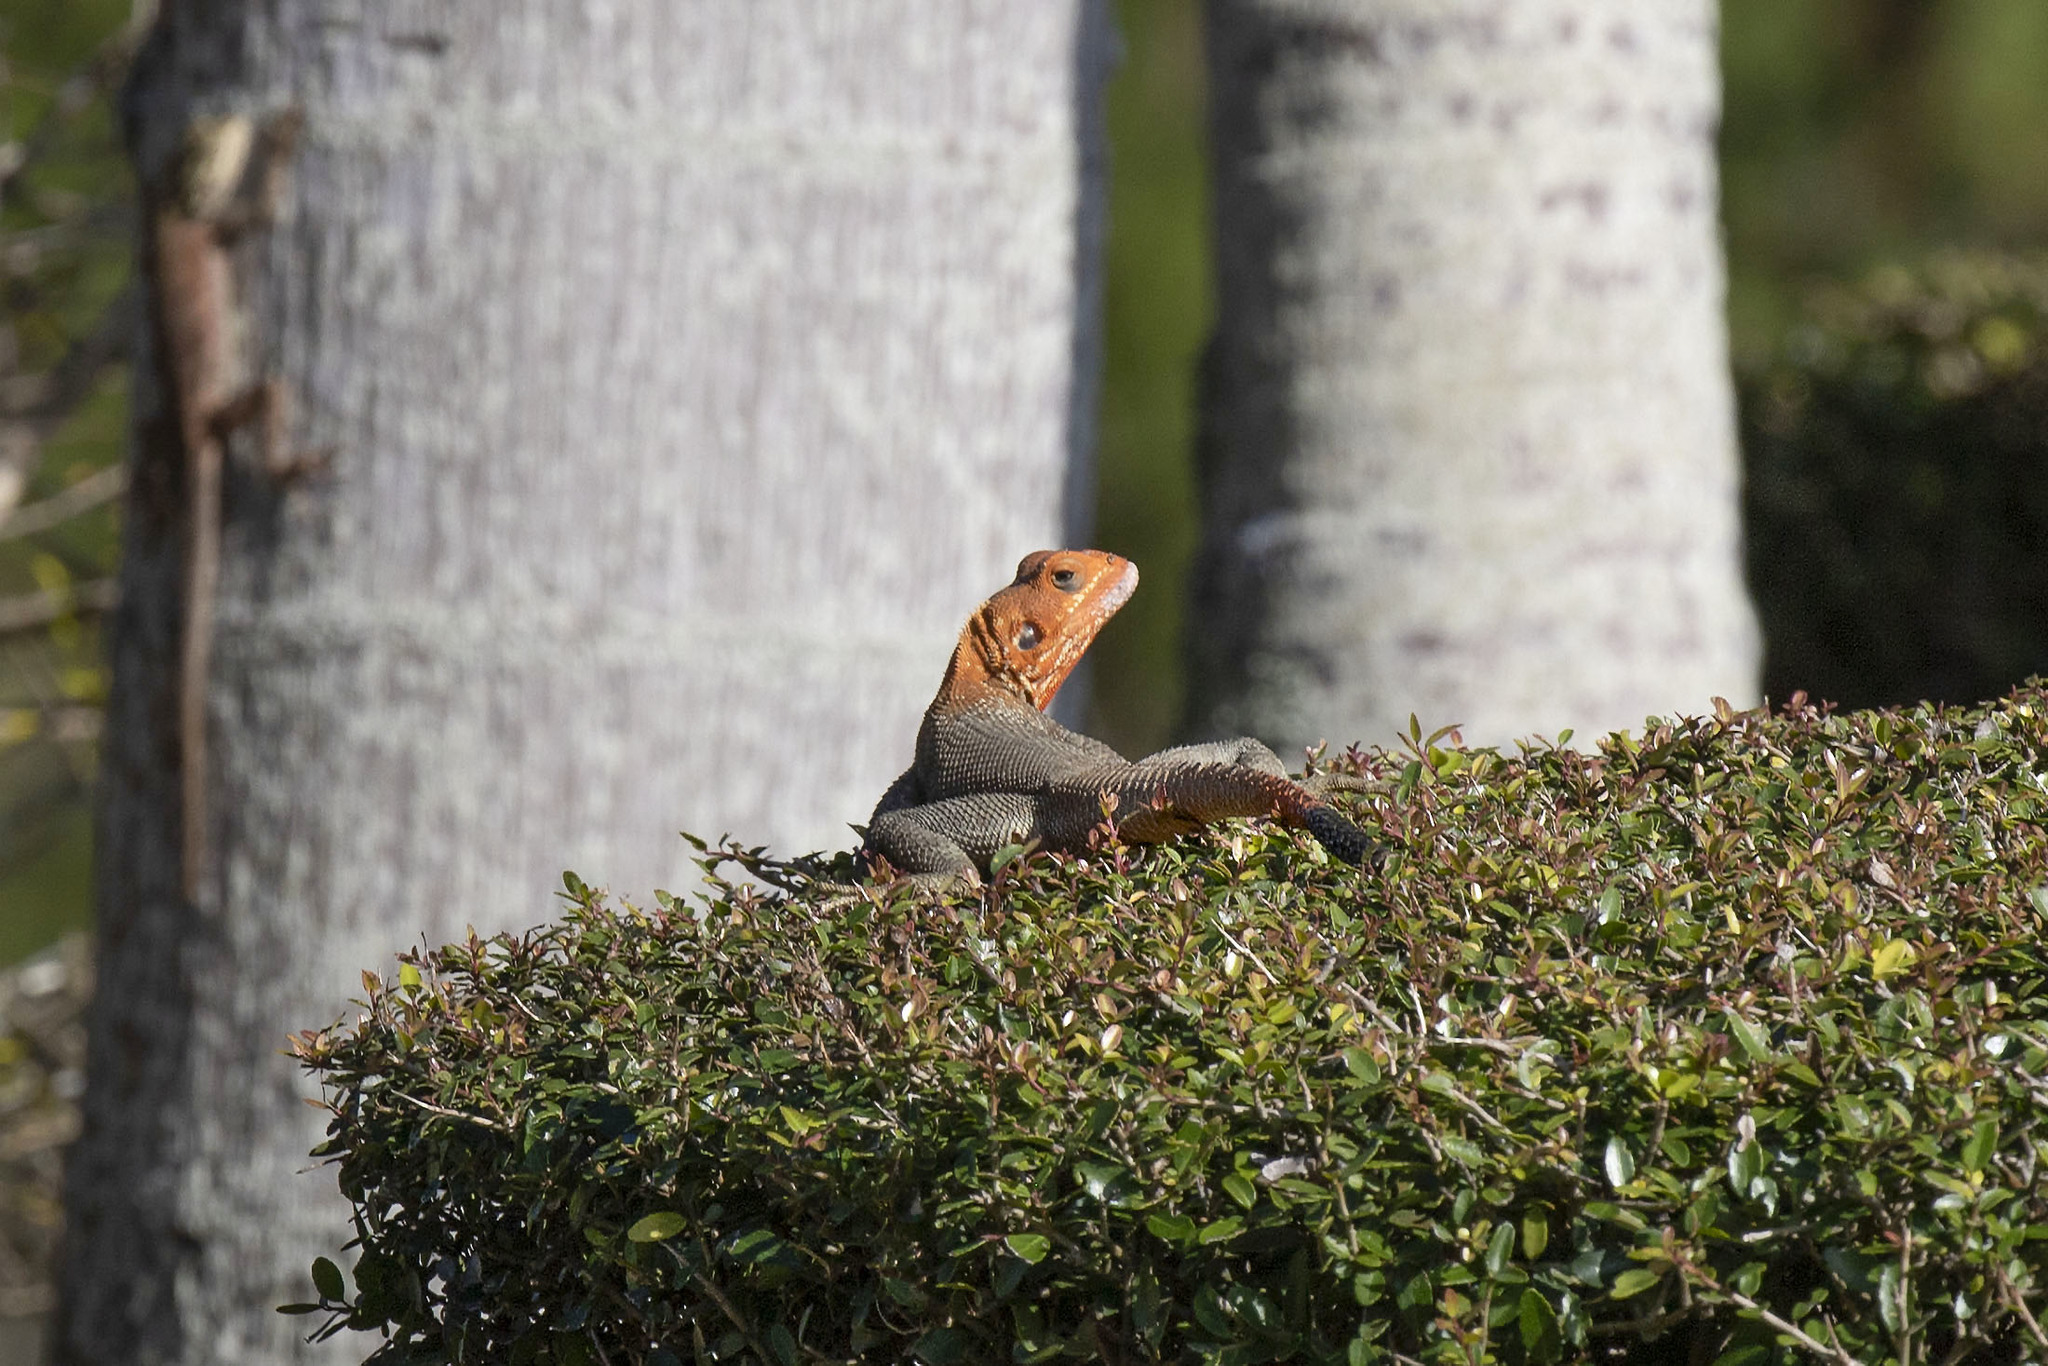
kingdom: Animalia
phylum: Chordata
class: Squamata
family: Agamidae
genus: Agama
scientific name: Agama picticauda
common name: Red-headed agama
